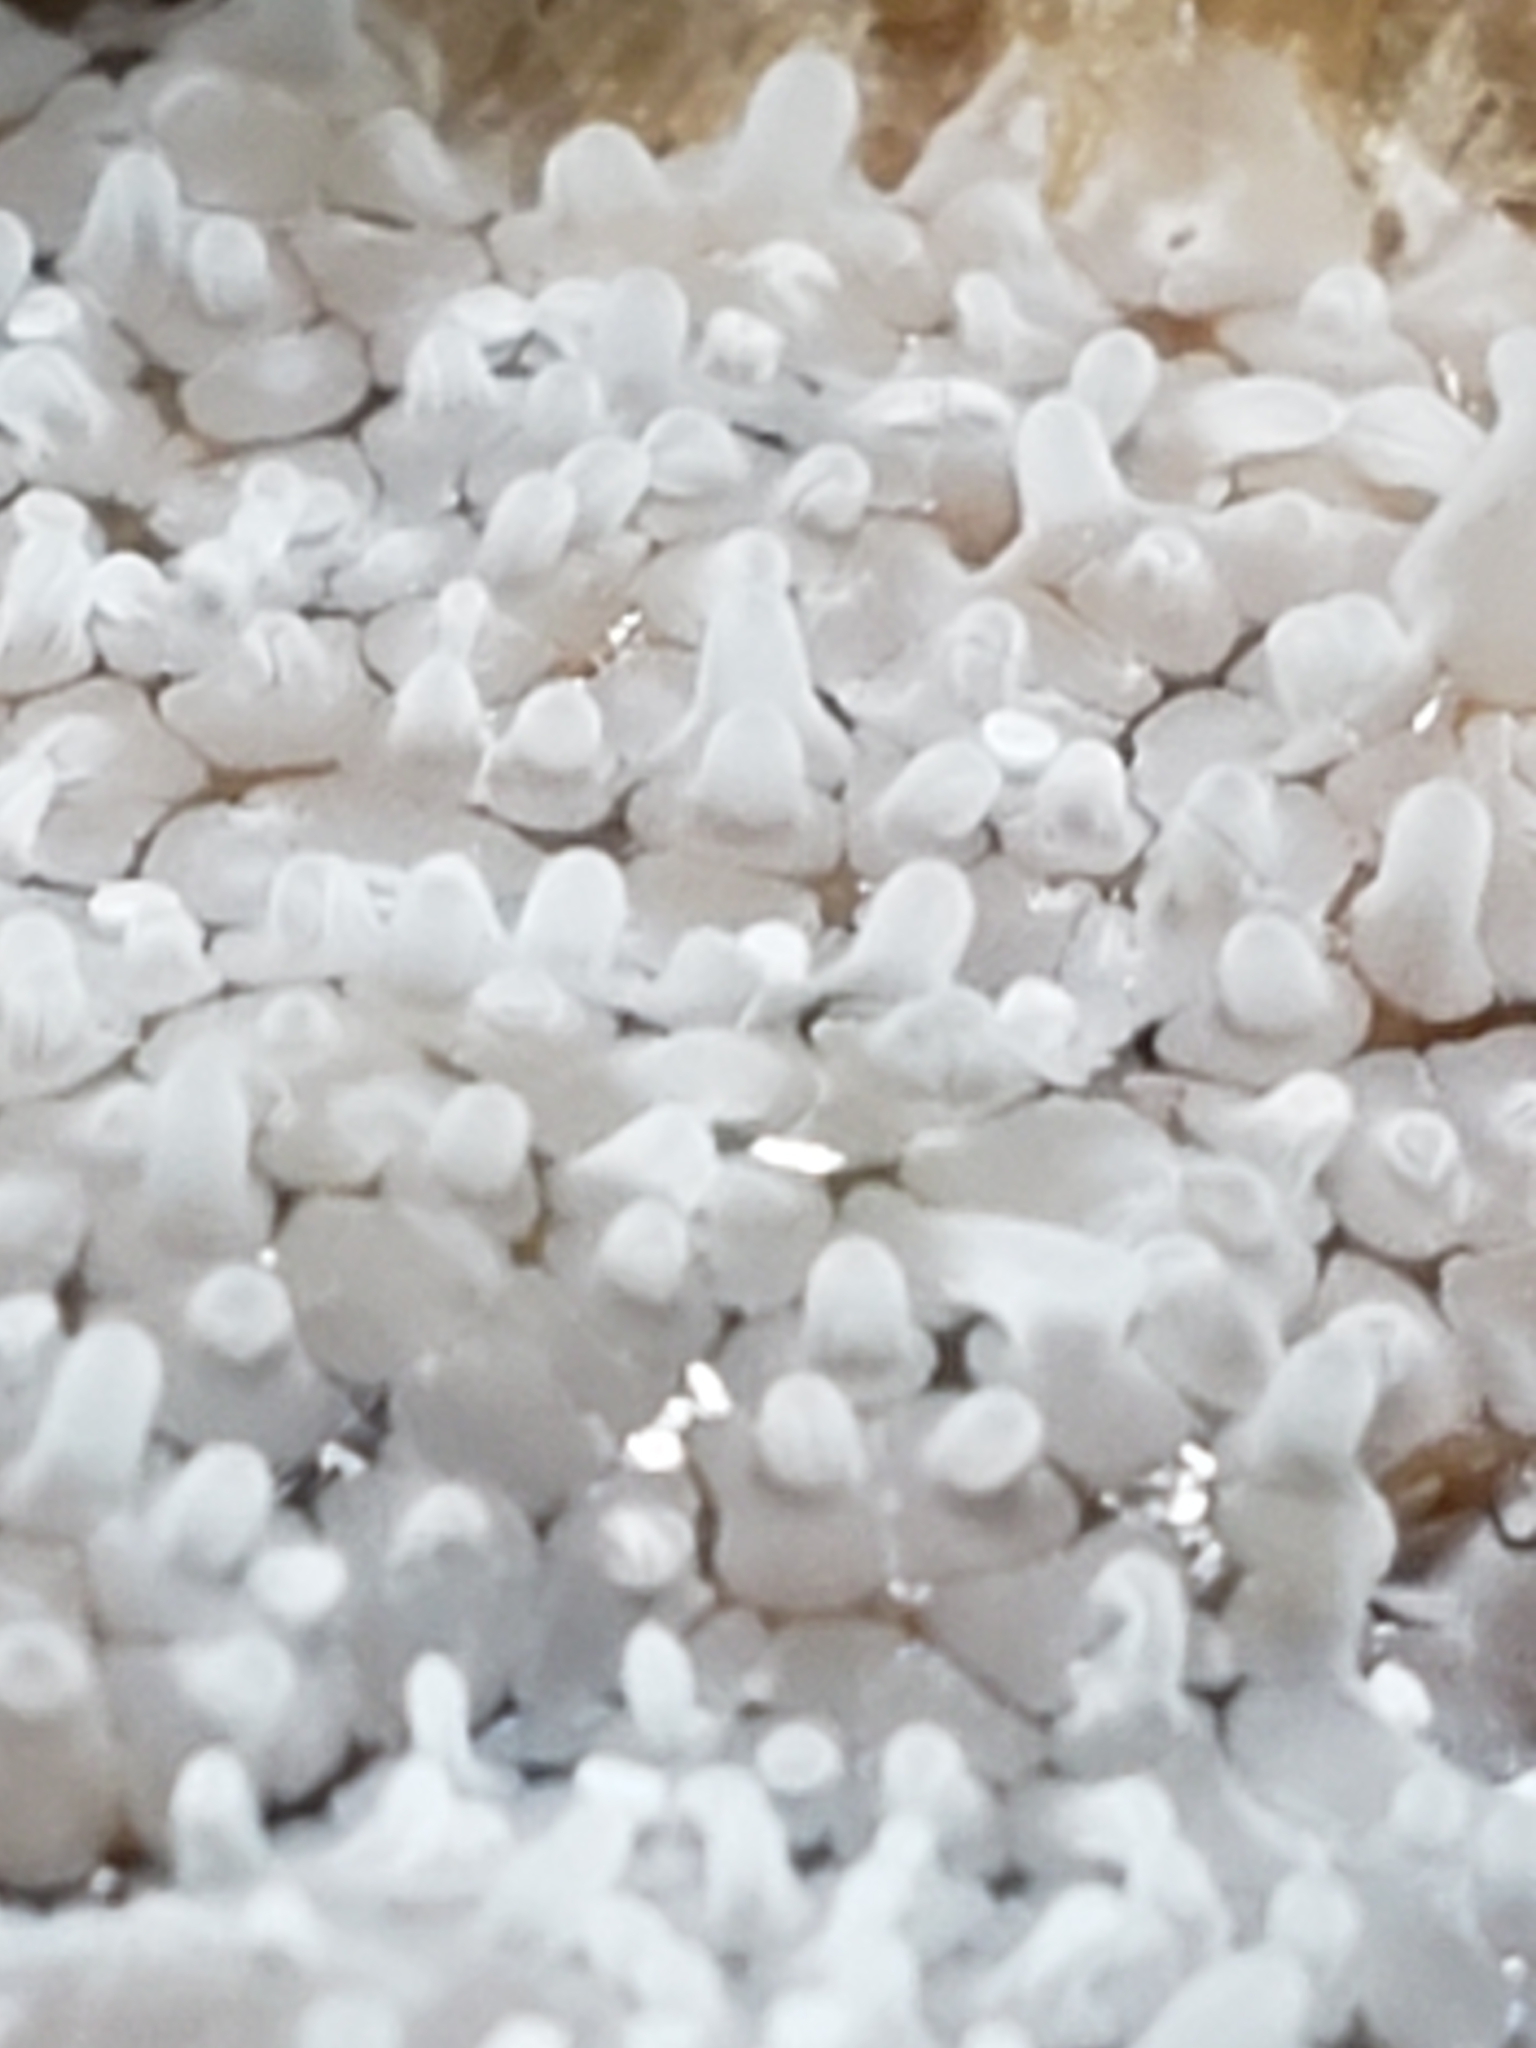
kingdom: Protozoa
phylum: Mycetozoa
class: Protosteliomycetes
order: Ceratiomyxales
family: Ceratiomyxaceae
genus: Ceratiomyxa
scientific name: Ceratiomyxa fruticulosa
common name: Honeycomb coral slime mold
